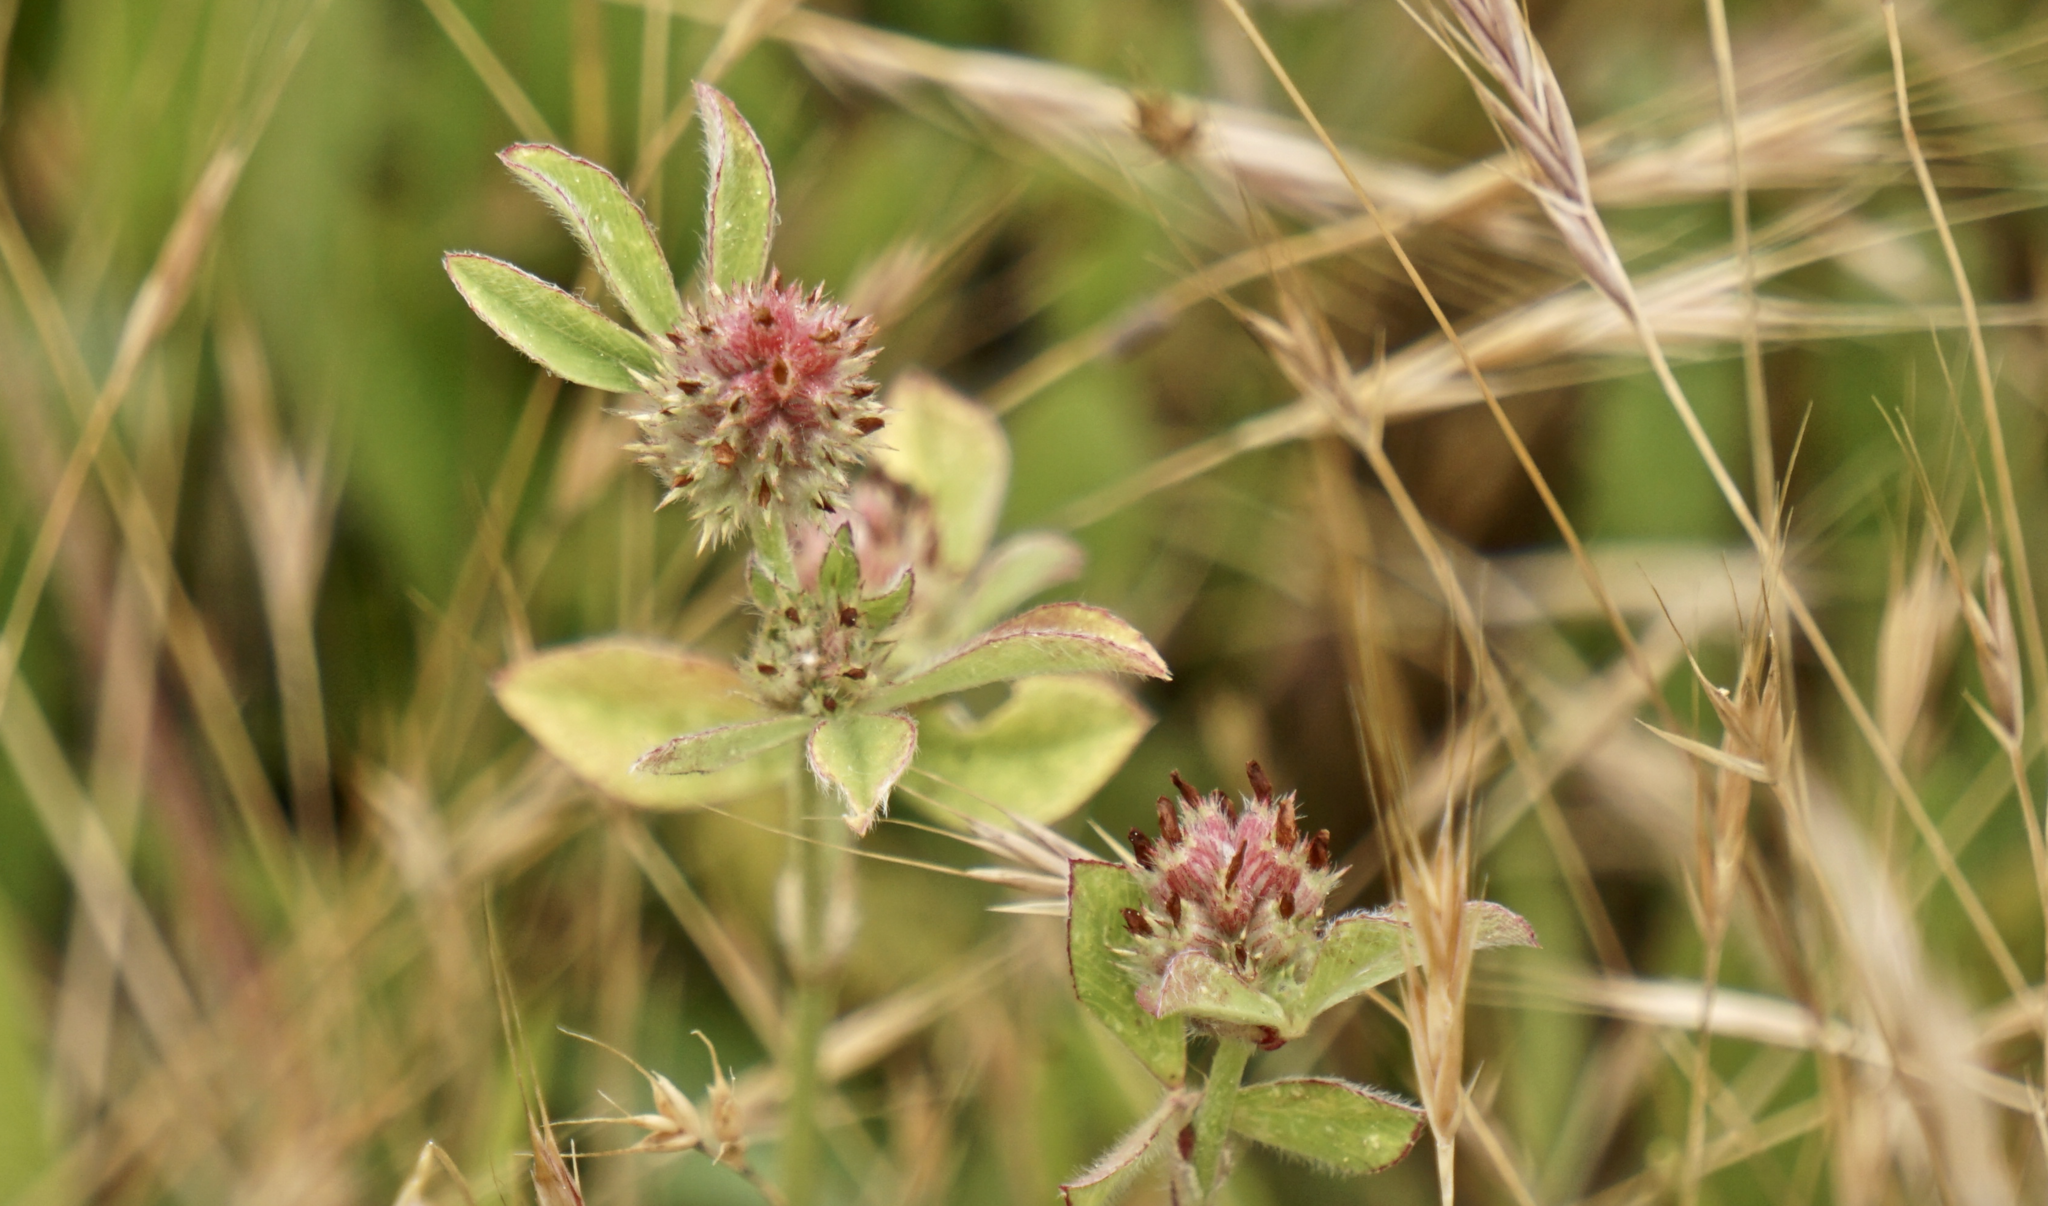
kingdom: Plantae
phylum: Tracheophyta
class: Magnoliopsida
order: Fabales
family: Fabaceae
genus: Trifolium
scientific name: Trifolium striatum
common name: Knotted clover
